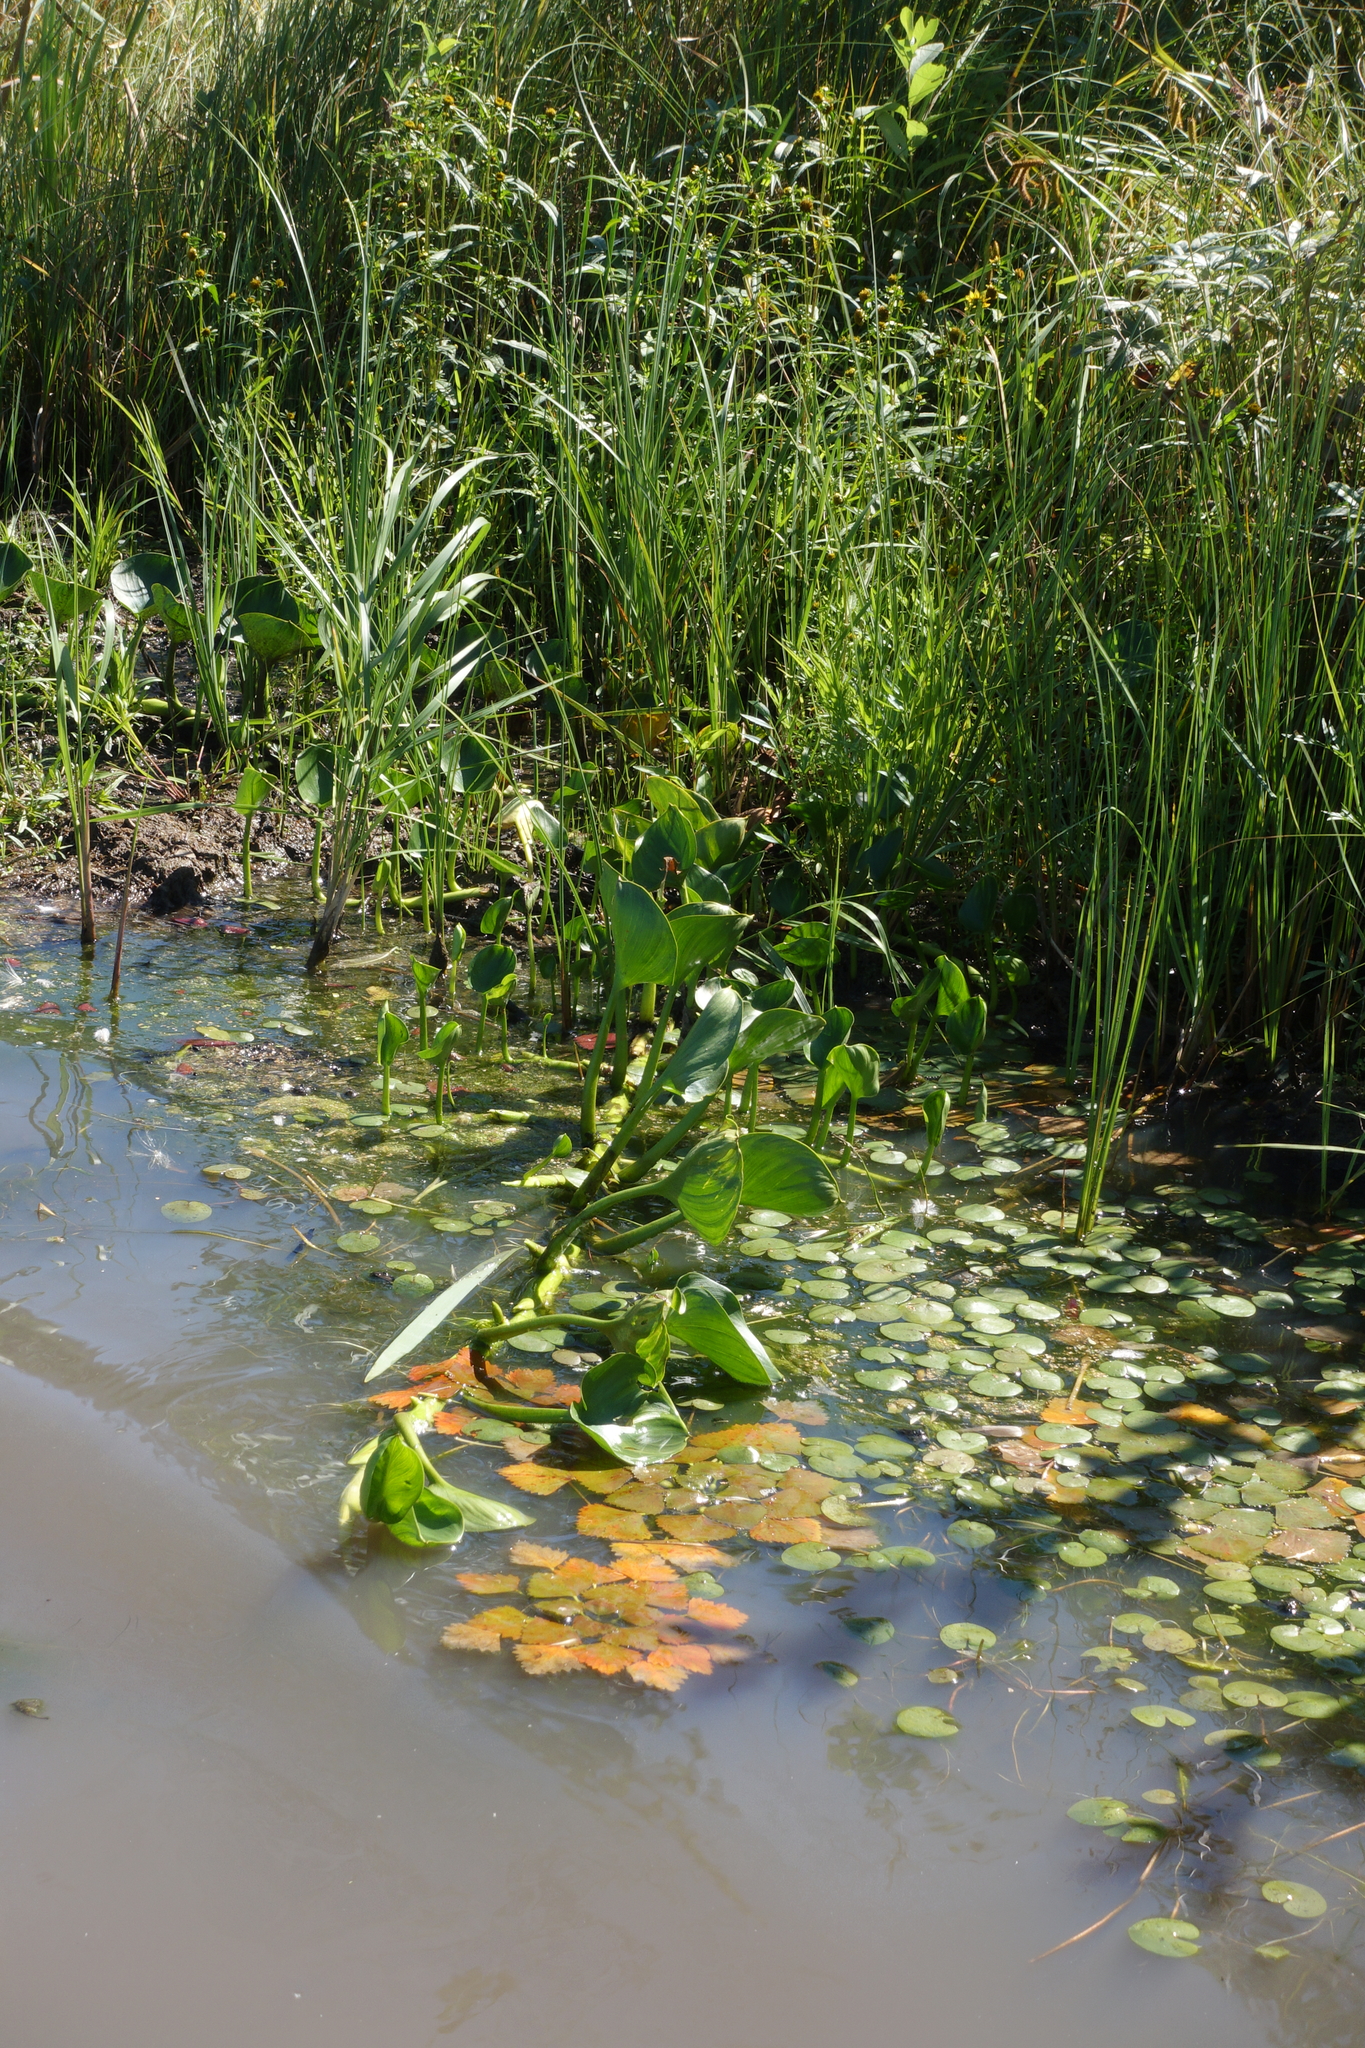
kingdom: Plantae
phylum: Tracheophyta
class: Liliopsida
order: Alismatales
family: Araceae
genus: Calla
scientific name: Calla palustris
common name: Bog arum
